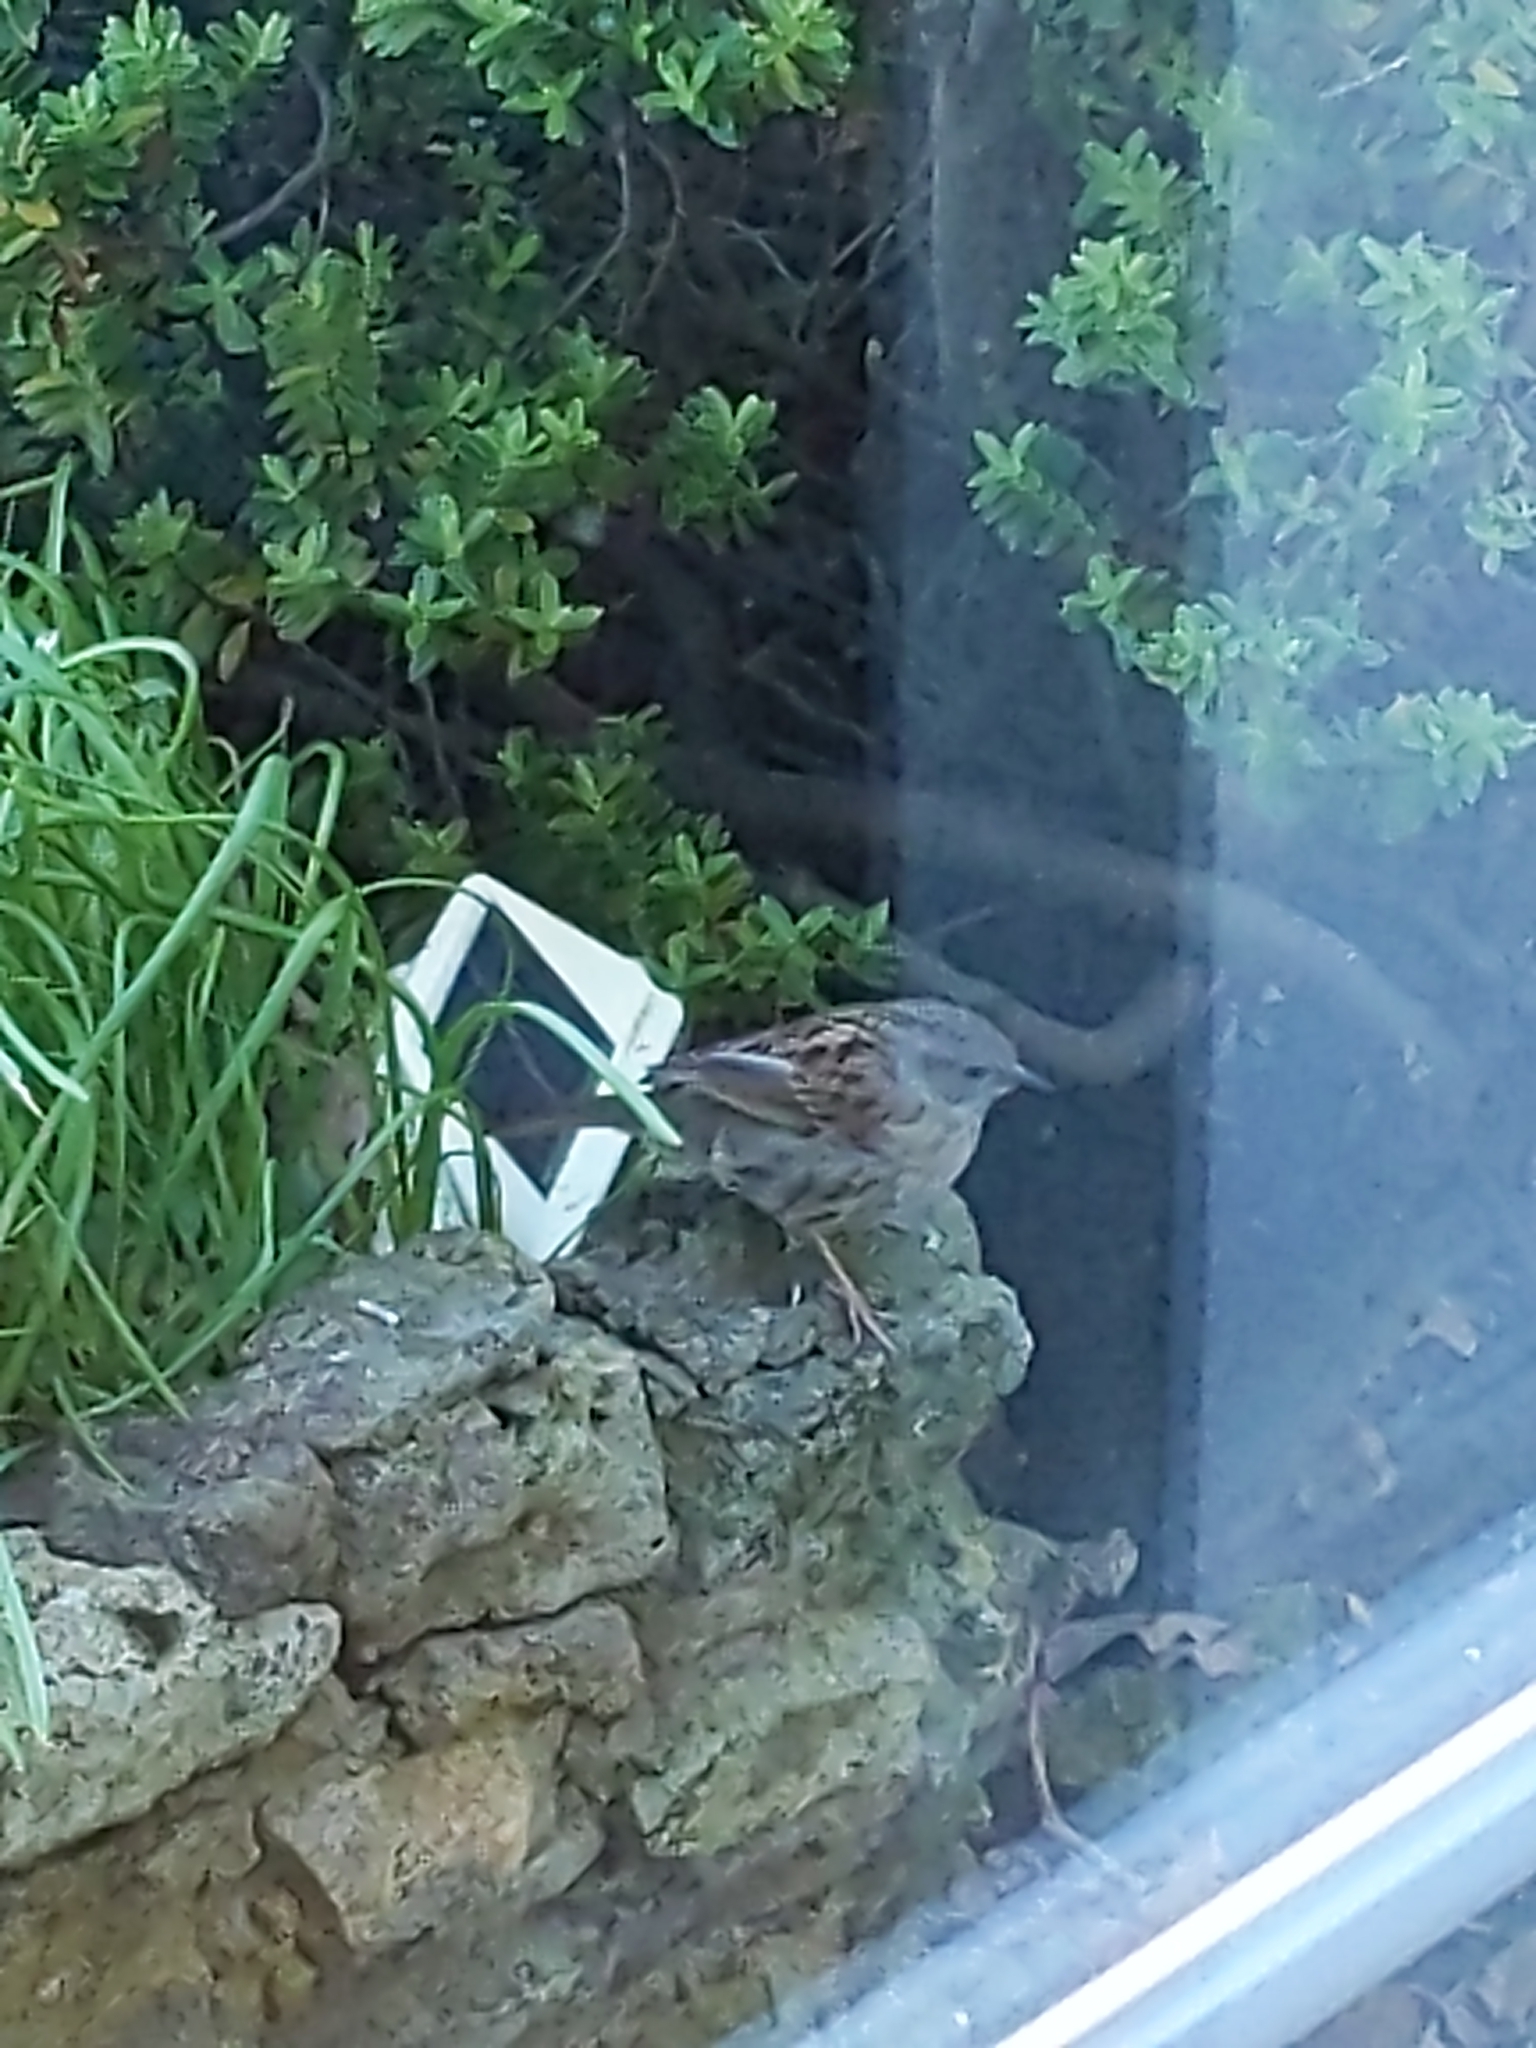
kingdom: Animalia
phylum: Chordata
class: Aves
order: Passeriformes
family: Prunellidae
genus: Prunella
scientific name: Prunella modularis
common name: Dunnock
